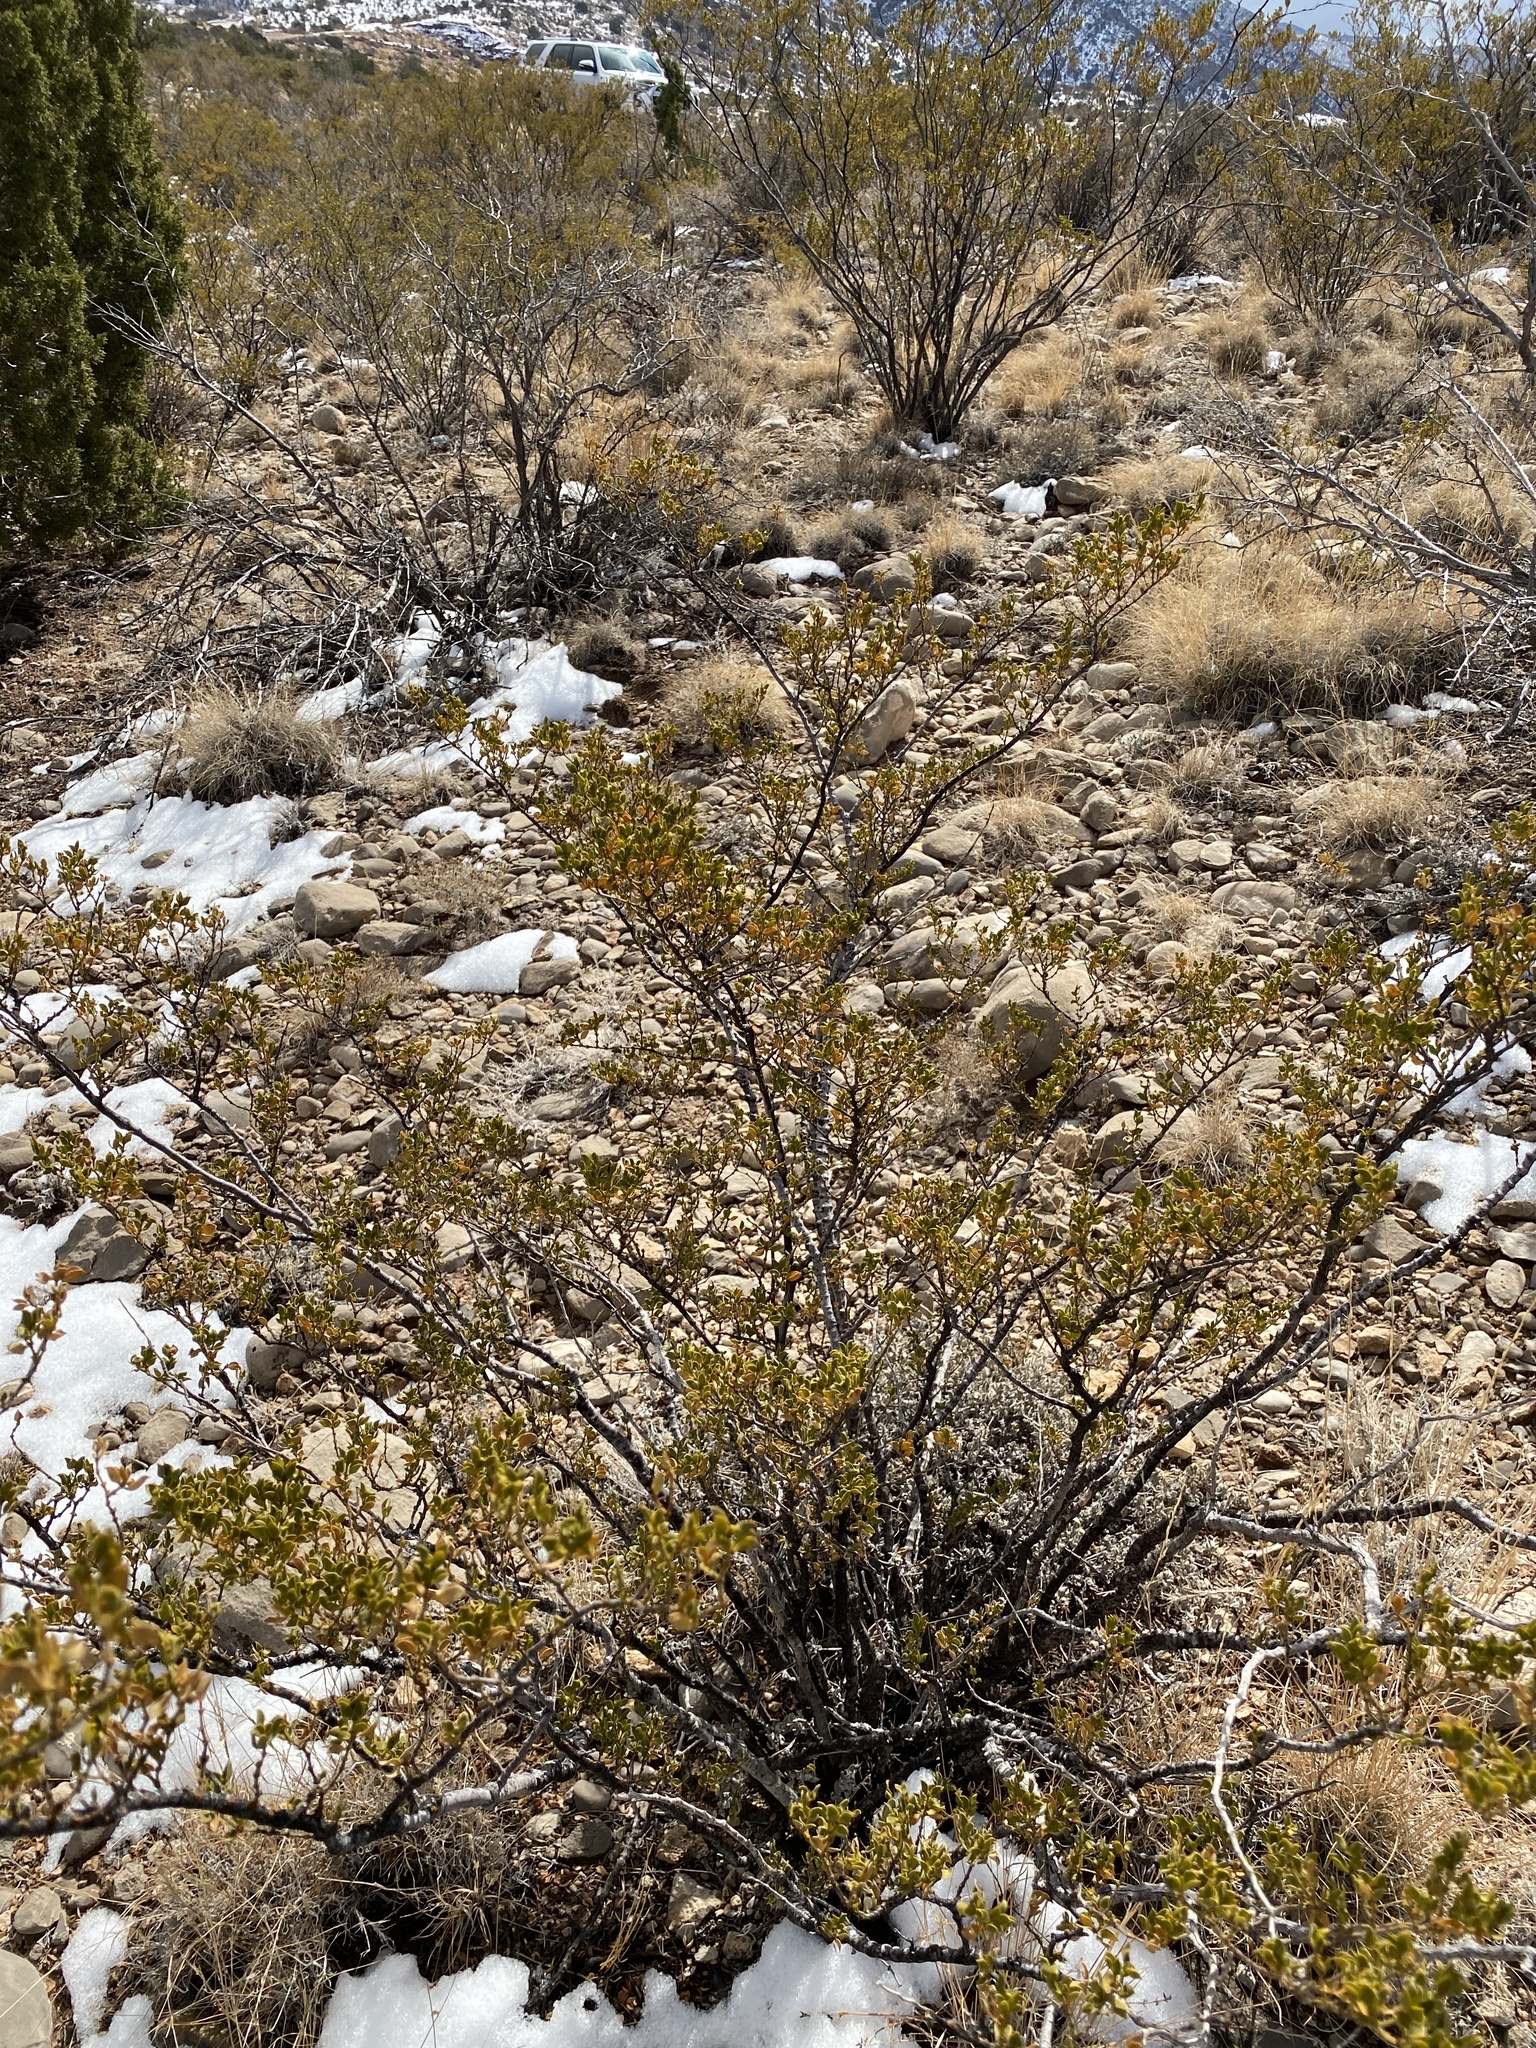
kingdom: Plantae
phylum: Tracheophyta
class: Magnoliopsida
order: Zygophyllales
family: Zygophyllaceae
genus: Larrea
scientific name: Larrea tridentata
